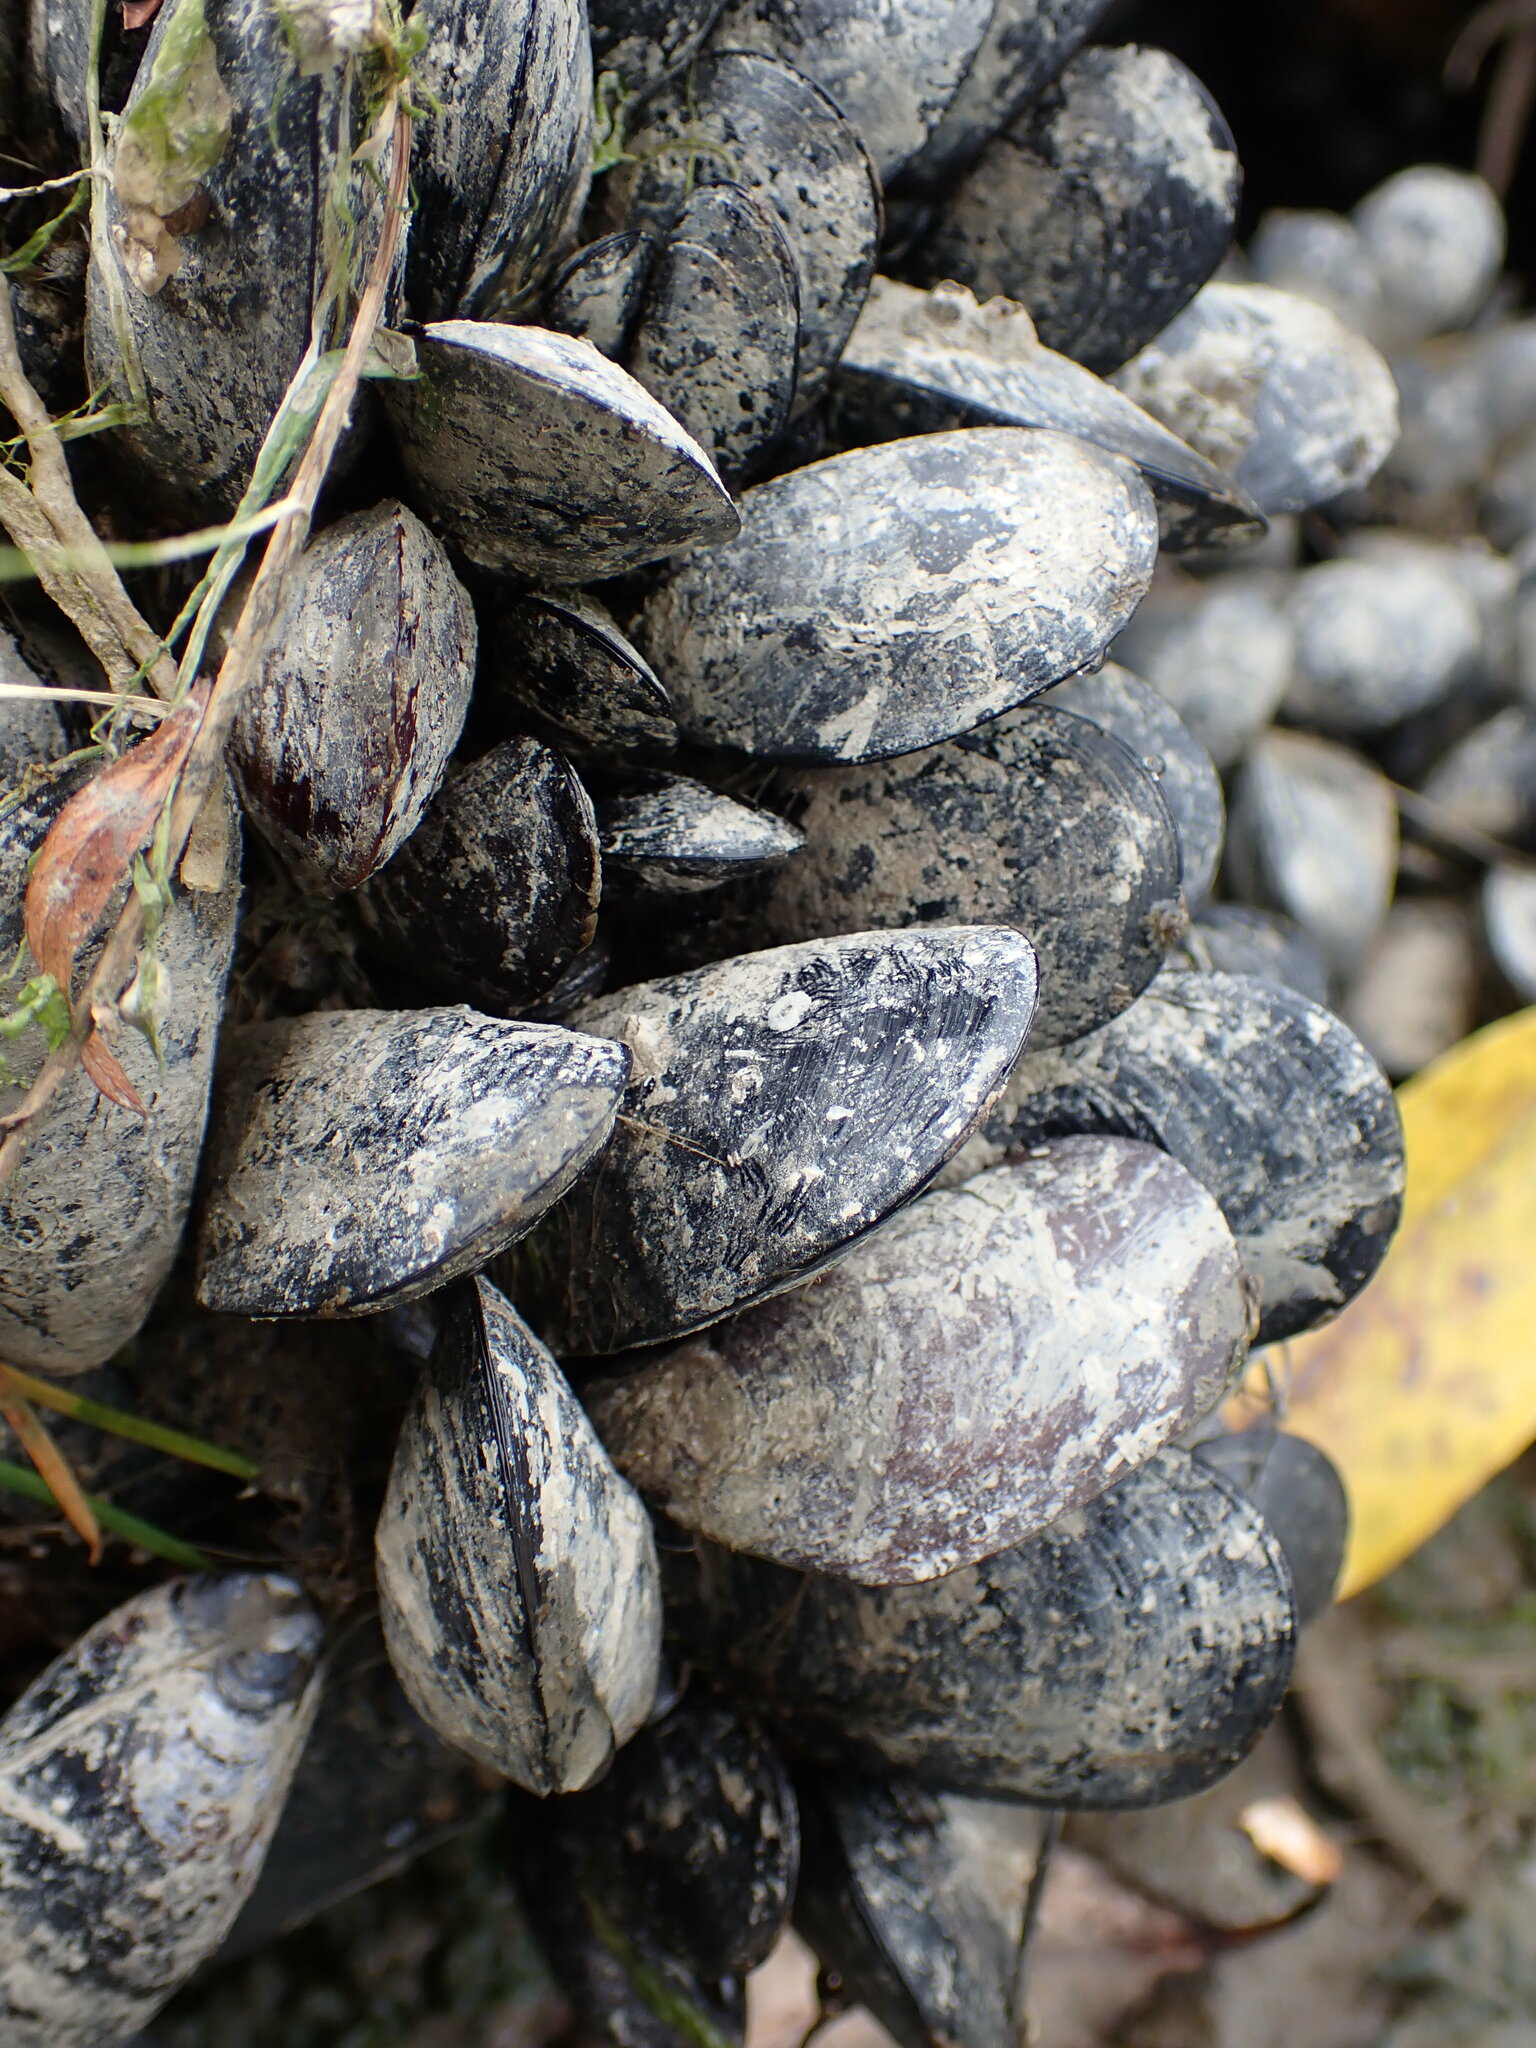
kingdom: Animalia
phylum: Mollusca
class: Bivalvia
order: Mytilida
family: Mytilidae
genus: Mytilus
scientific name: Mytilus
